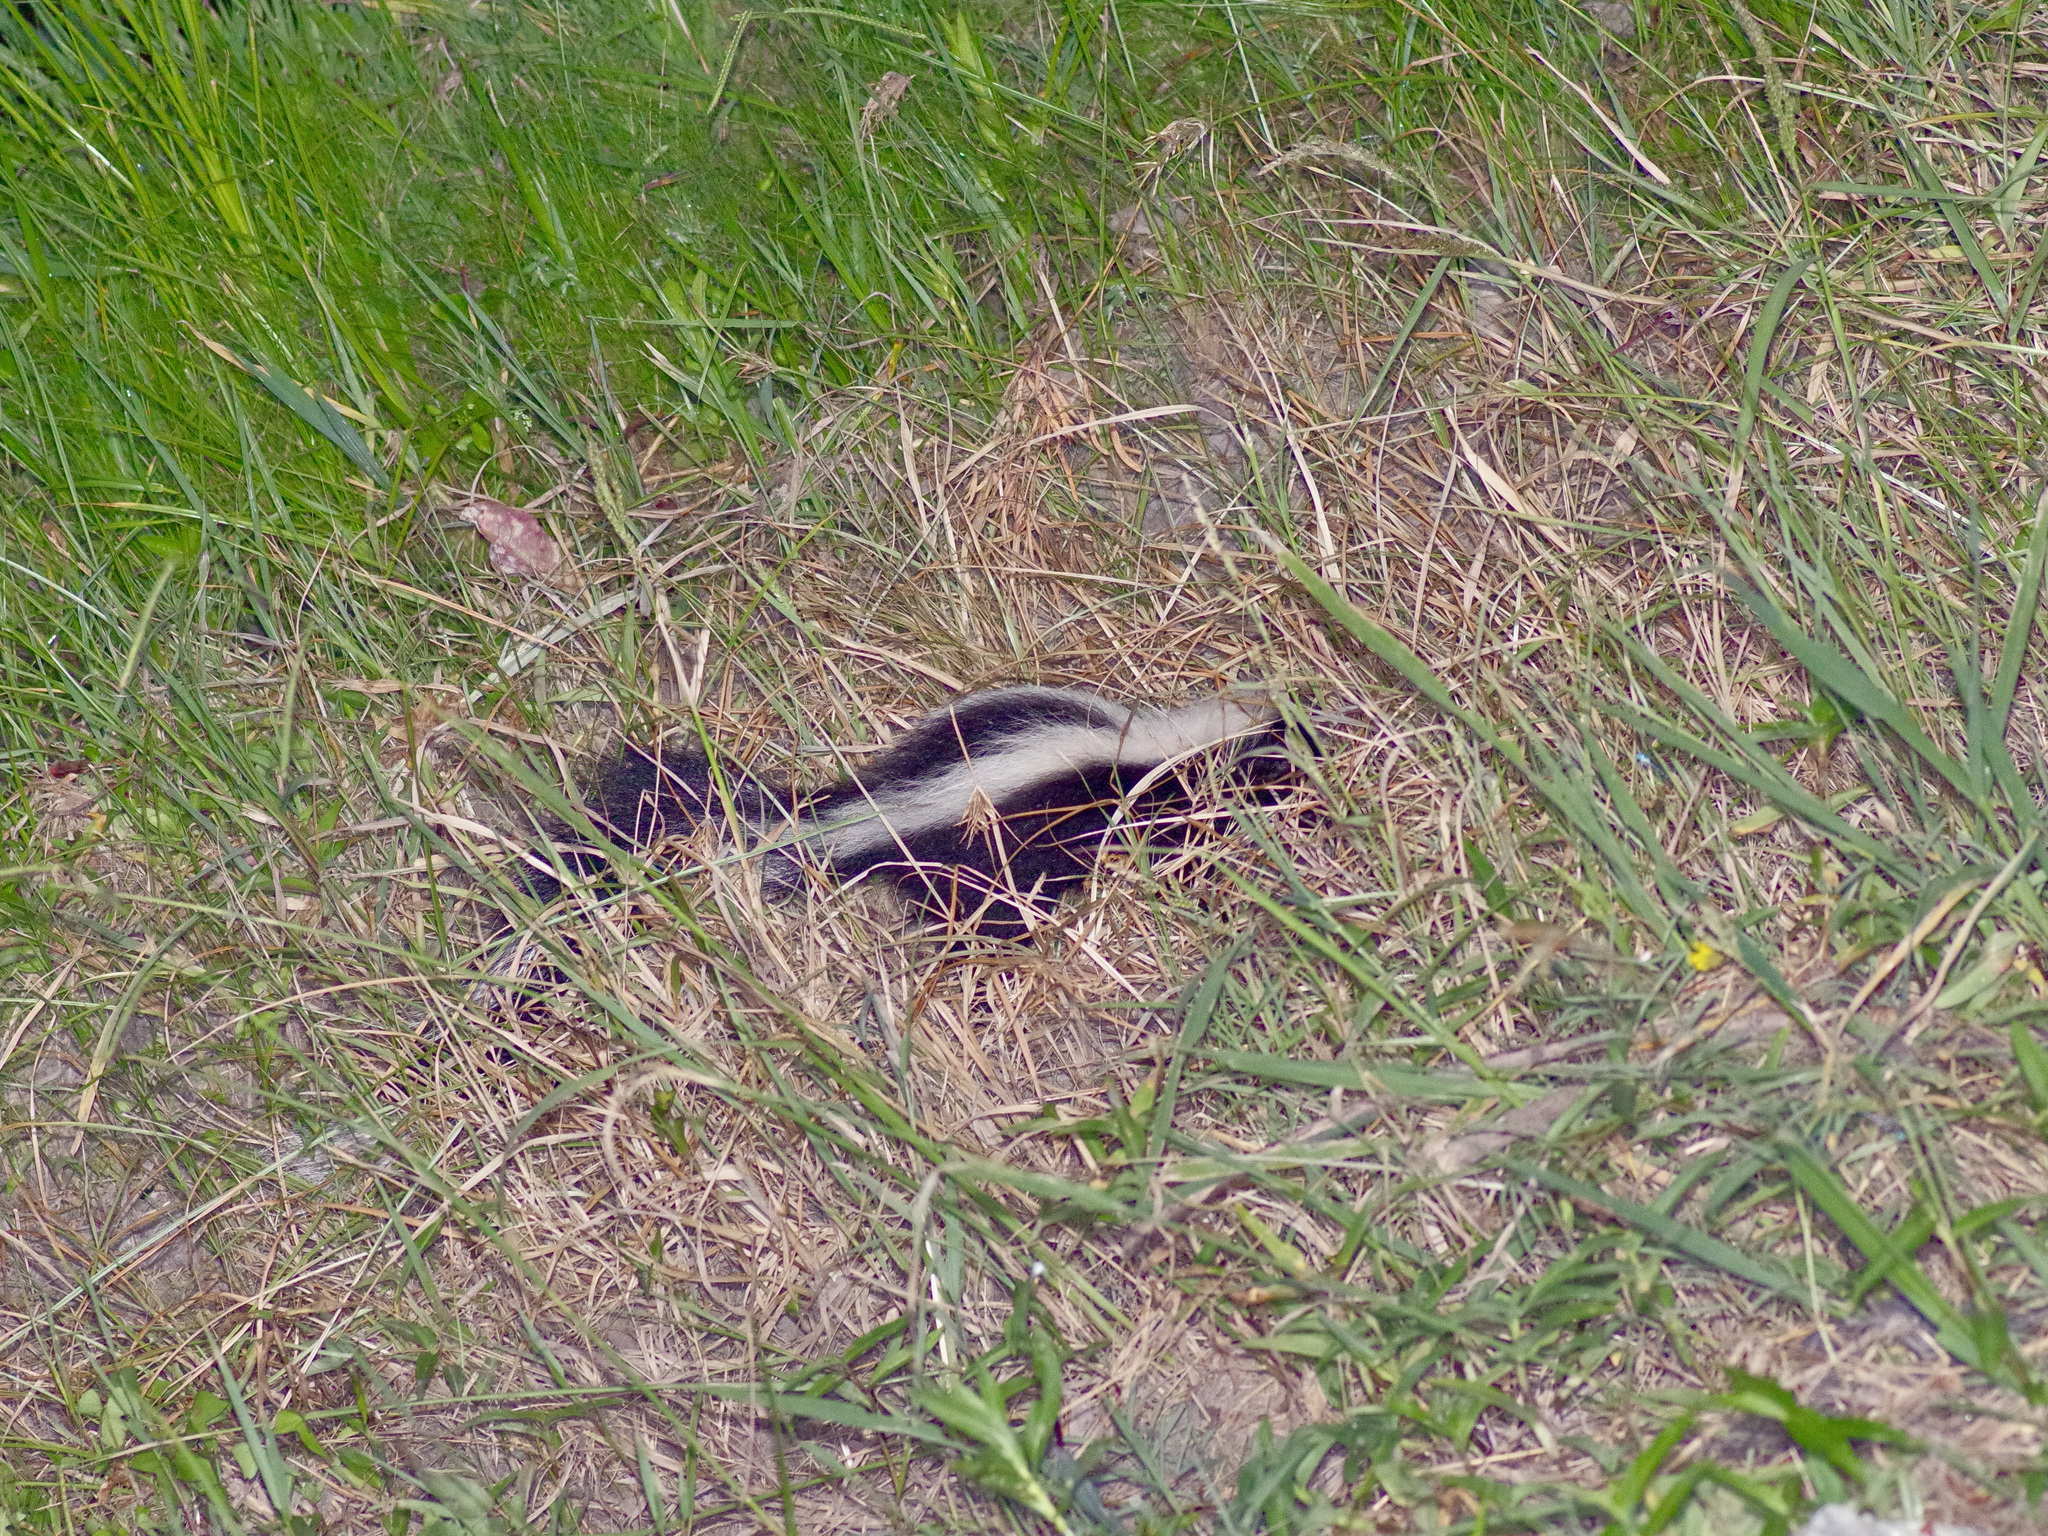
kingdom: Animalia
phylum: Chordata
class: Mammalia
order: Carnivora
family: Mephitidae
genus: Mephitis
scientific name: Mephitis mephitis
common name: Striped skunk
